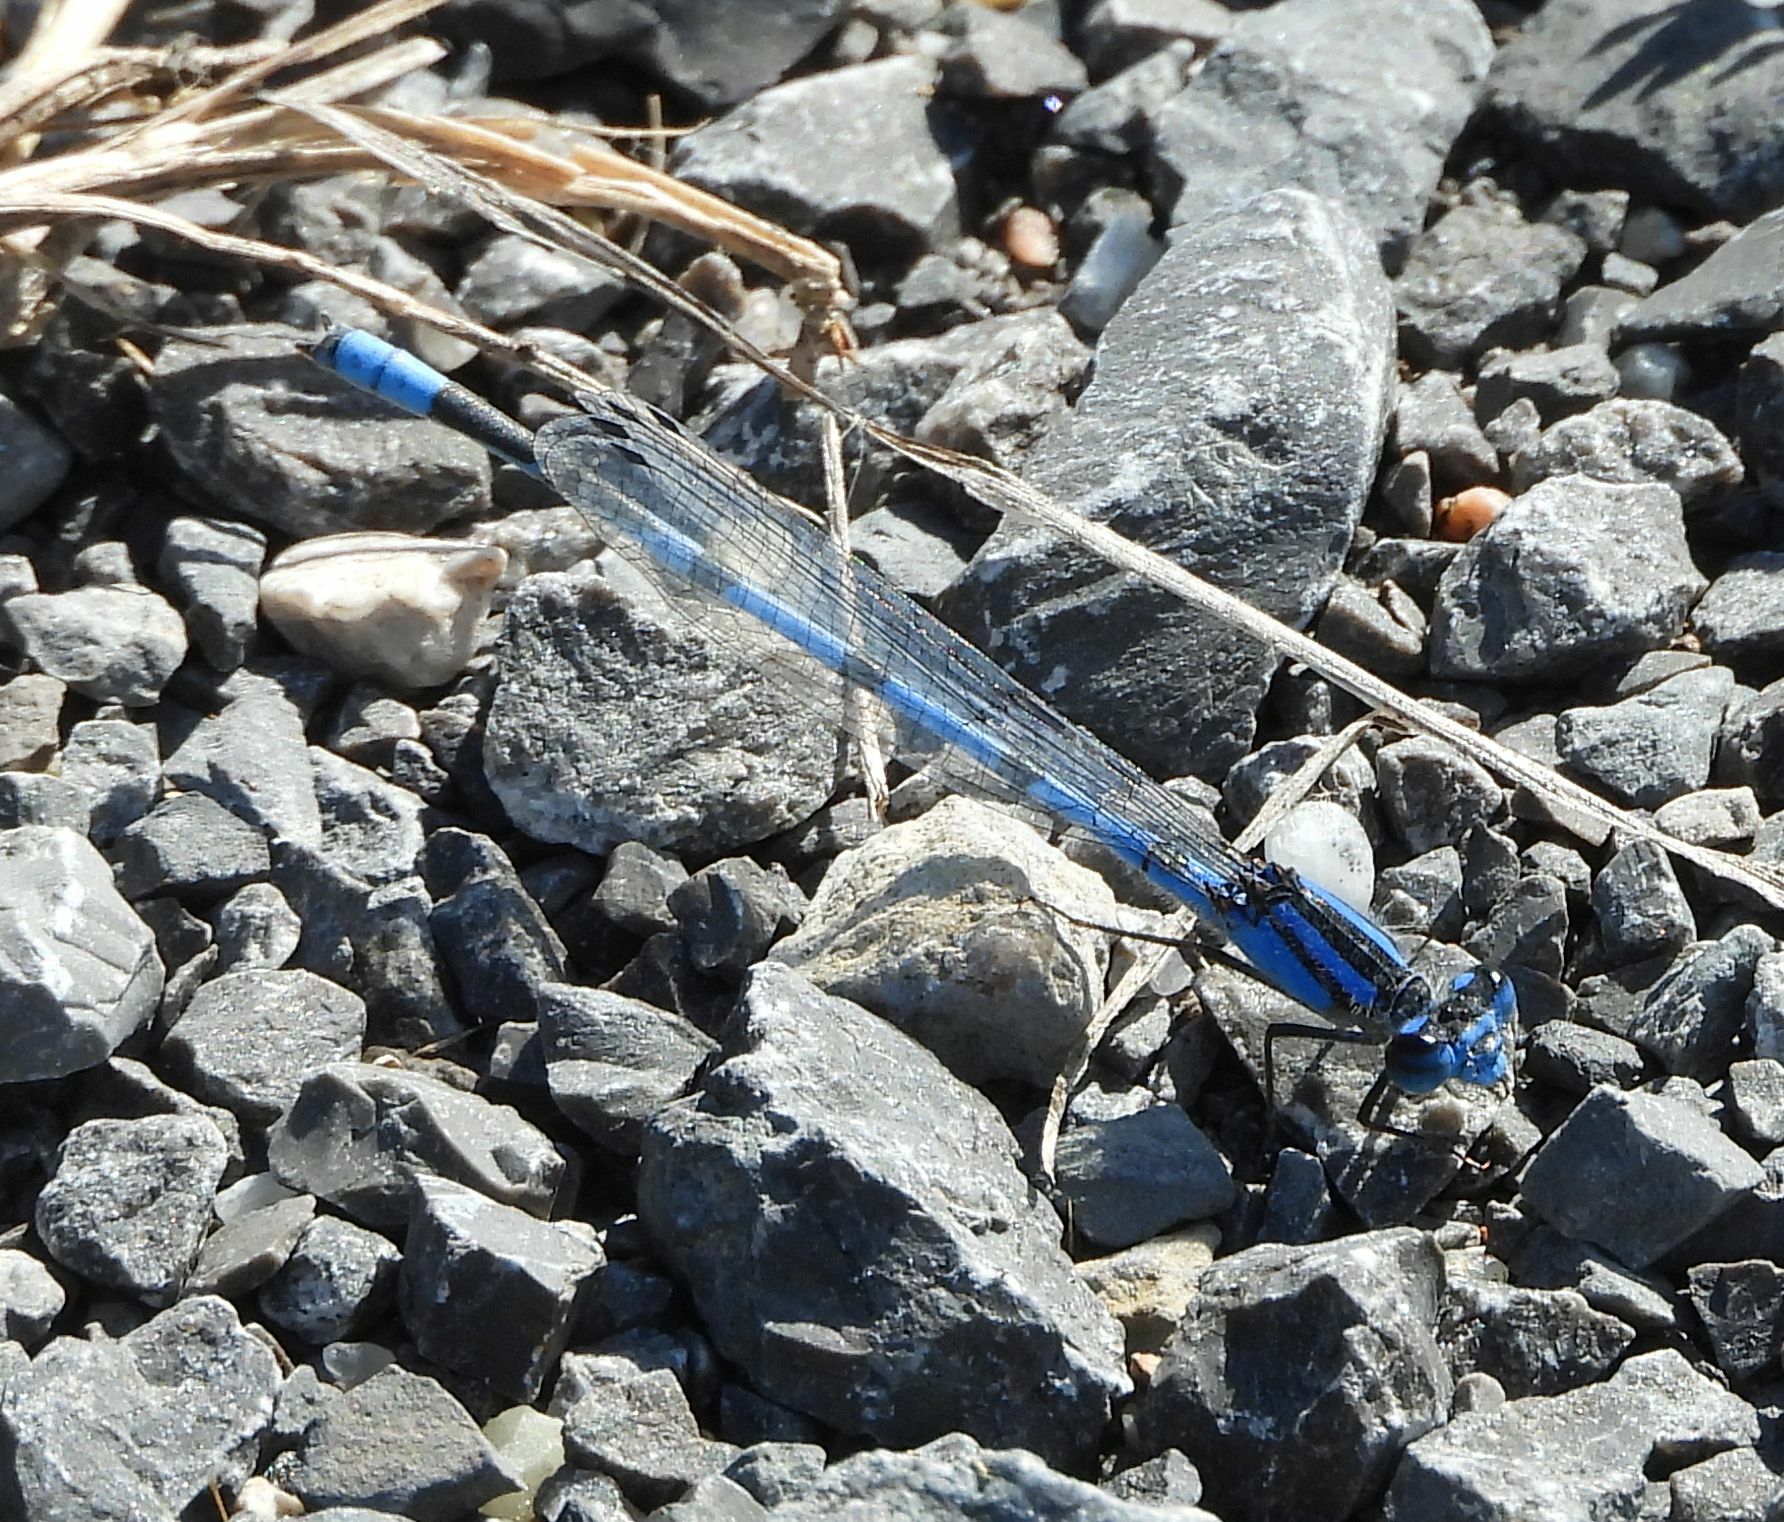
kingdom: Animalia
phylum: Arthropoda
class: Insecta
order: Odonata
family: Coenagrionidae
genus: Enallagma
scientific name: Enallagma civile
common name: Damselfly
